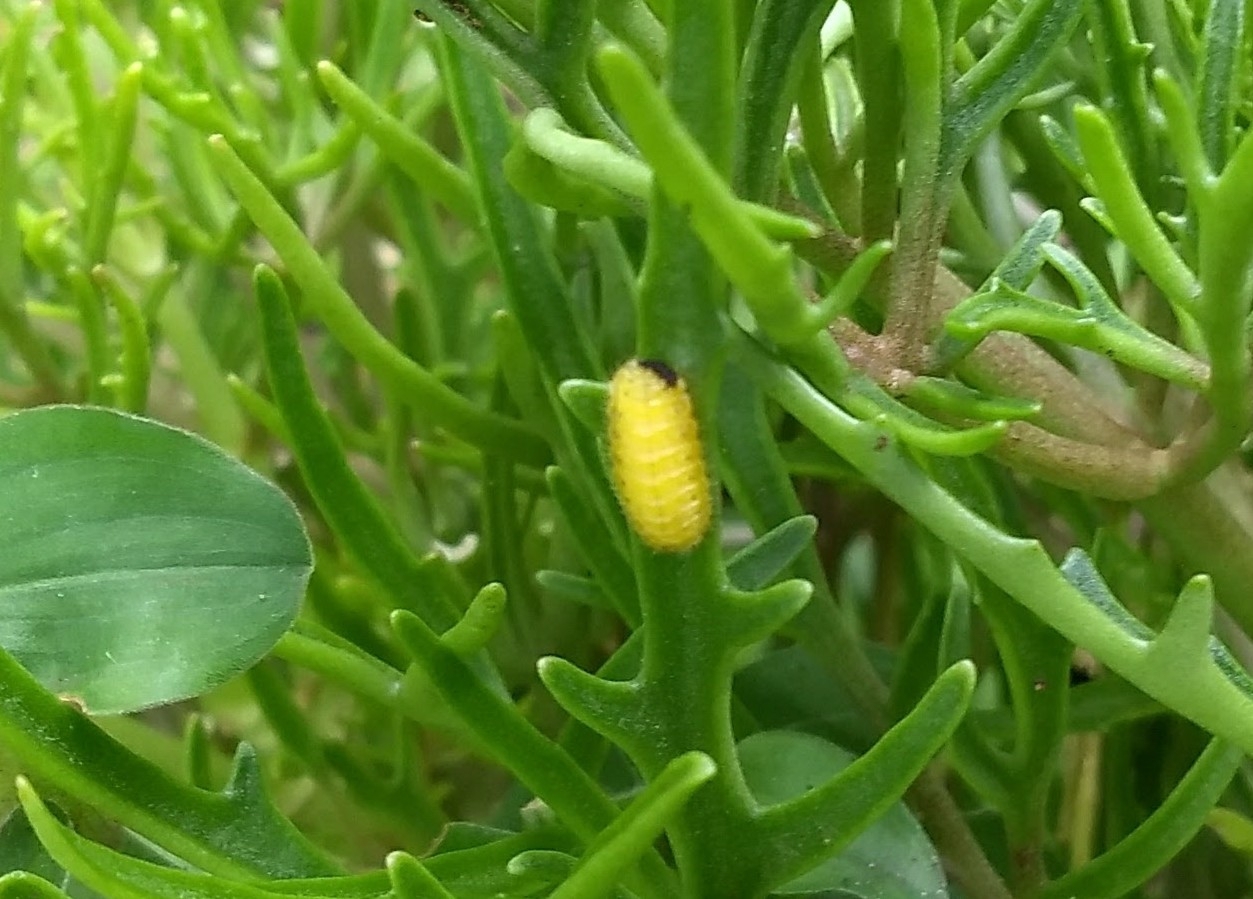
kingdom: Animalia
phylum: Arthropoda
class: Insecta
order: Lepidoptera
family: Lycaenidae
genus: Talicada
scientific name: Talicada nyseus
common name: Red pierrot
